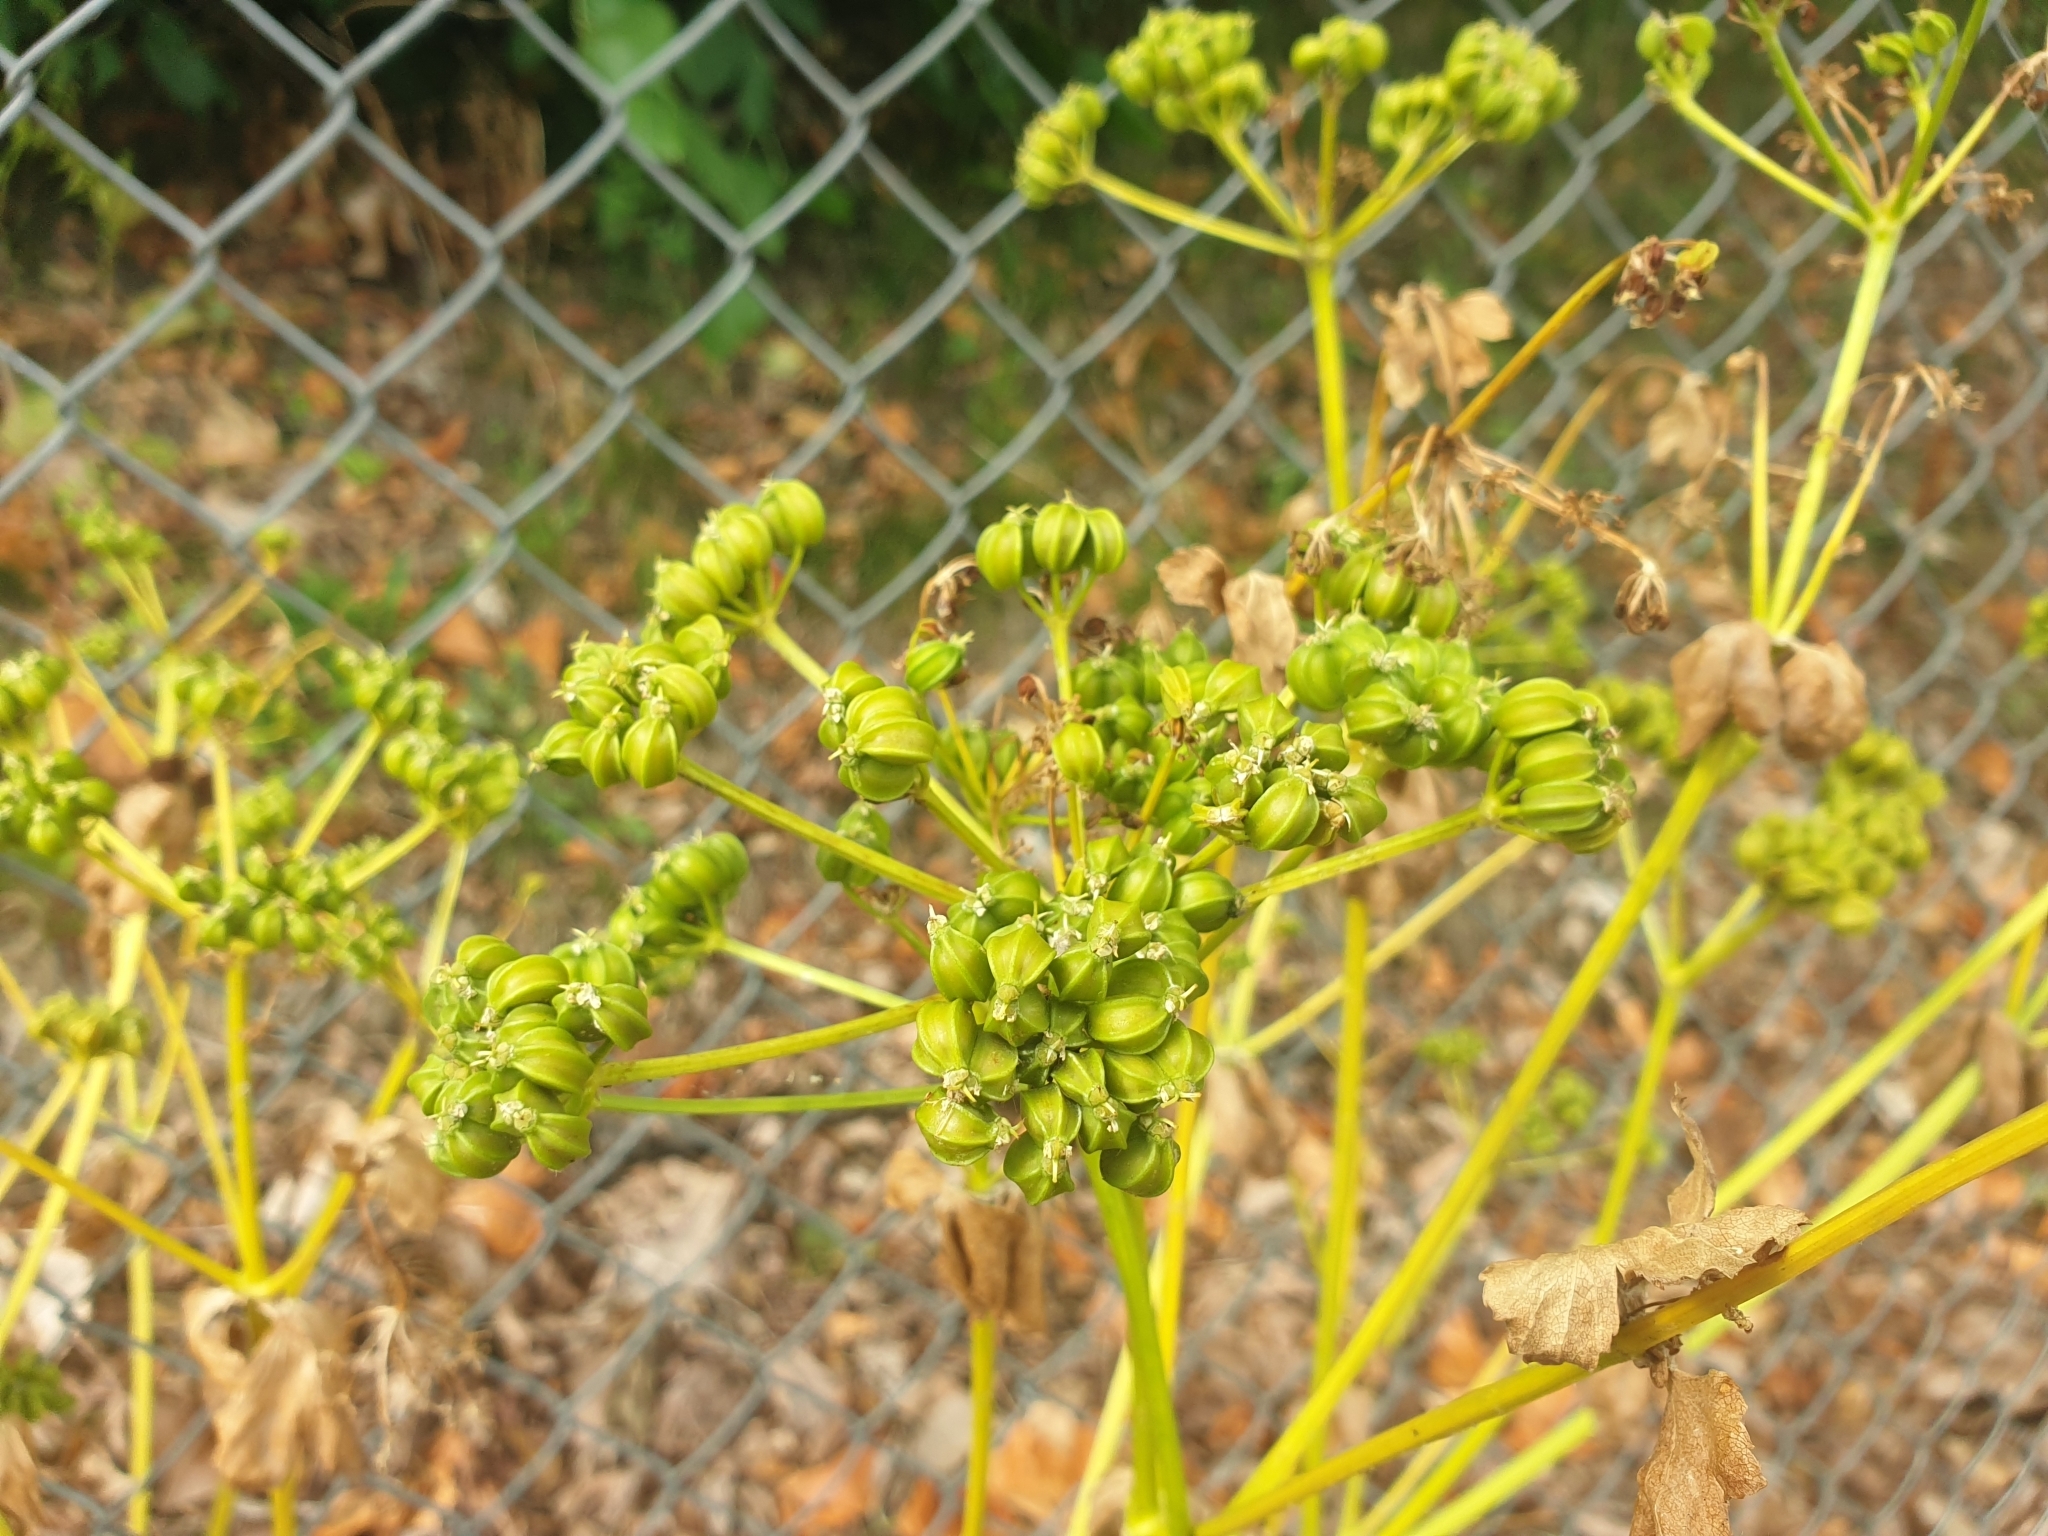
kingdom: Plantae
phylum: Tracheophyta
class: Magnoliopsida
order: Apiales
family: Apiaceae
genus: Smyrnium
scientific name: Smyrnium olusatrum
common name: Alexanders
